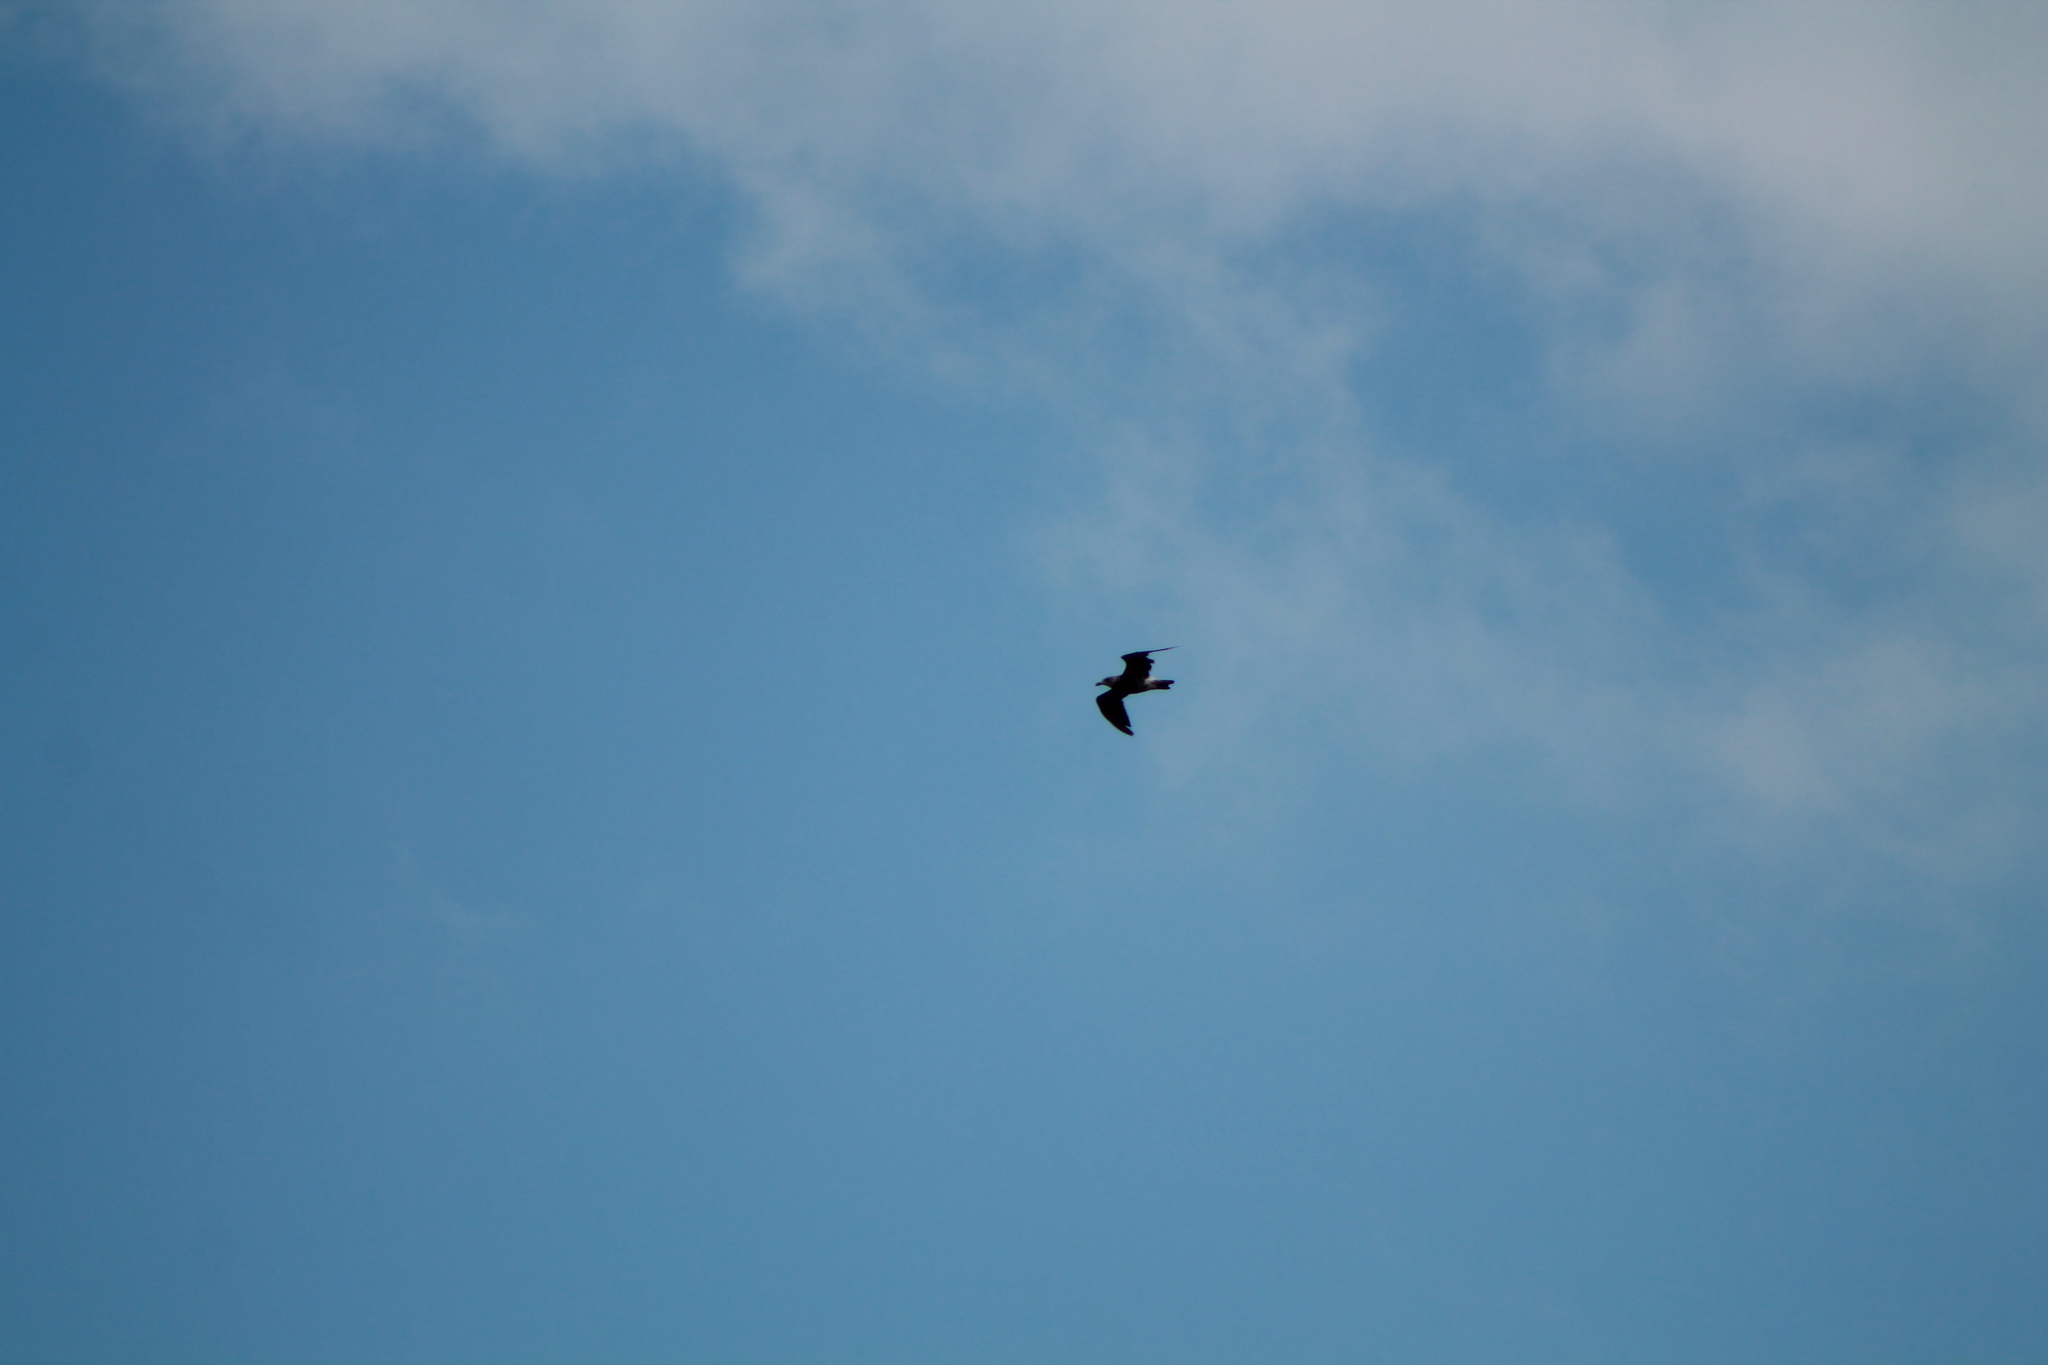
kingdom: Animalia
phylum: Chordata
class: Aves
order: Charadriiformes
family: Laridae
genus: Larus
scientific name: Larus dominicanus
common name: Kelp gull
